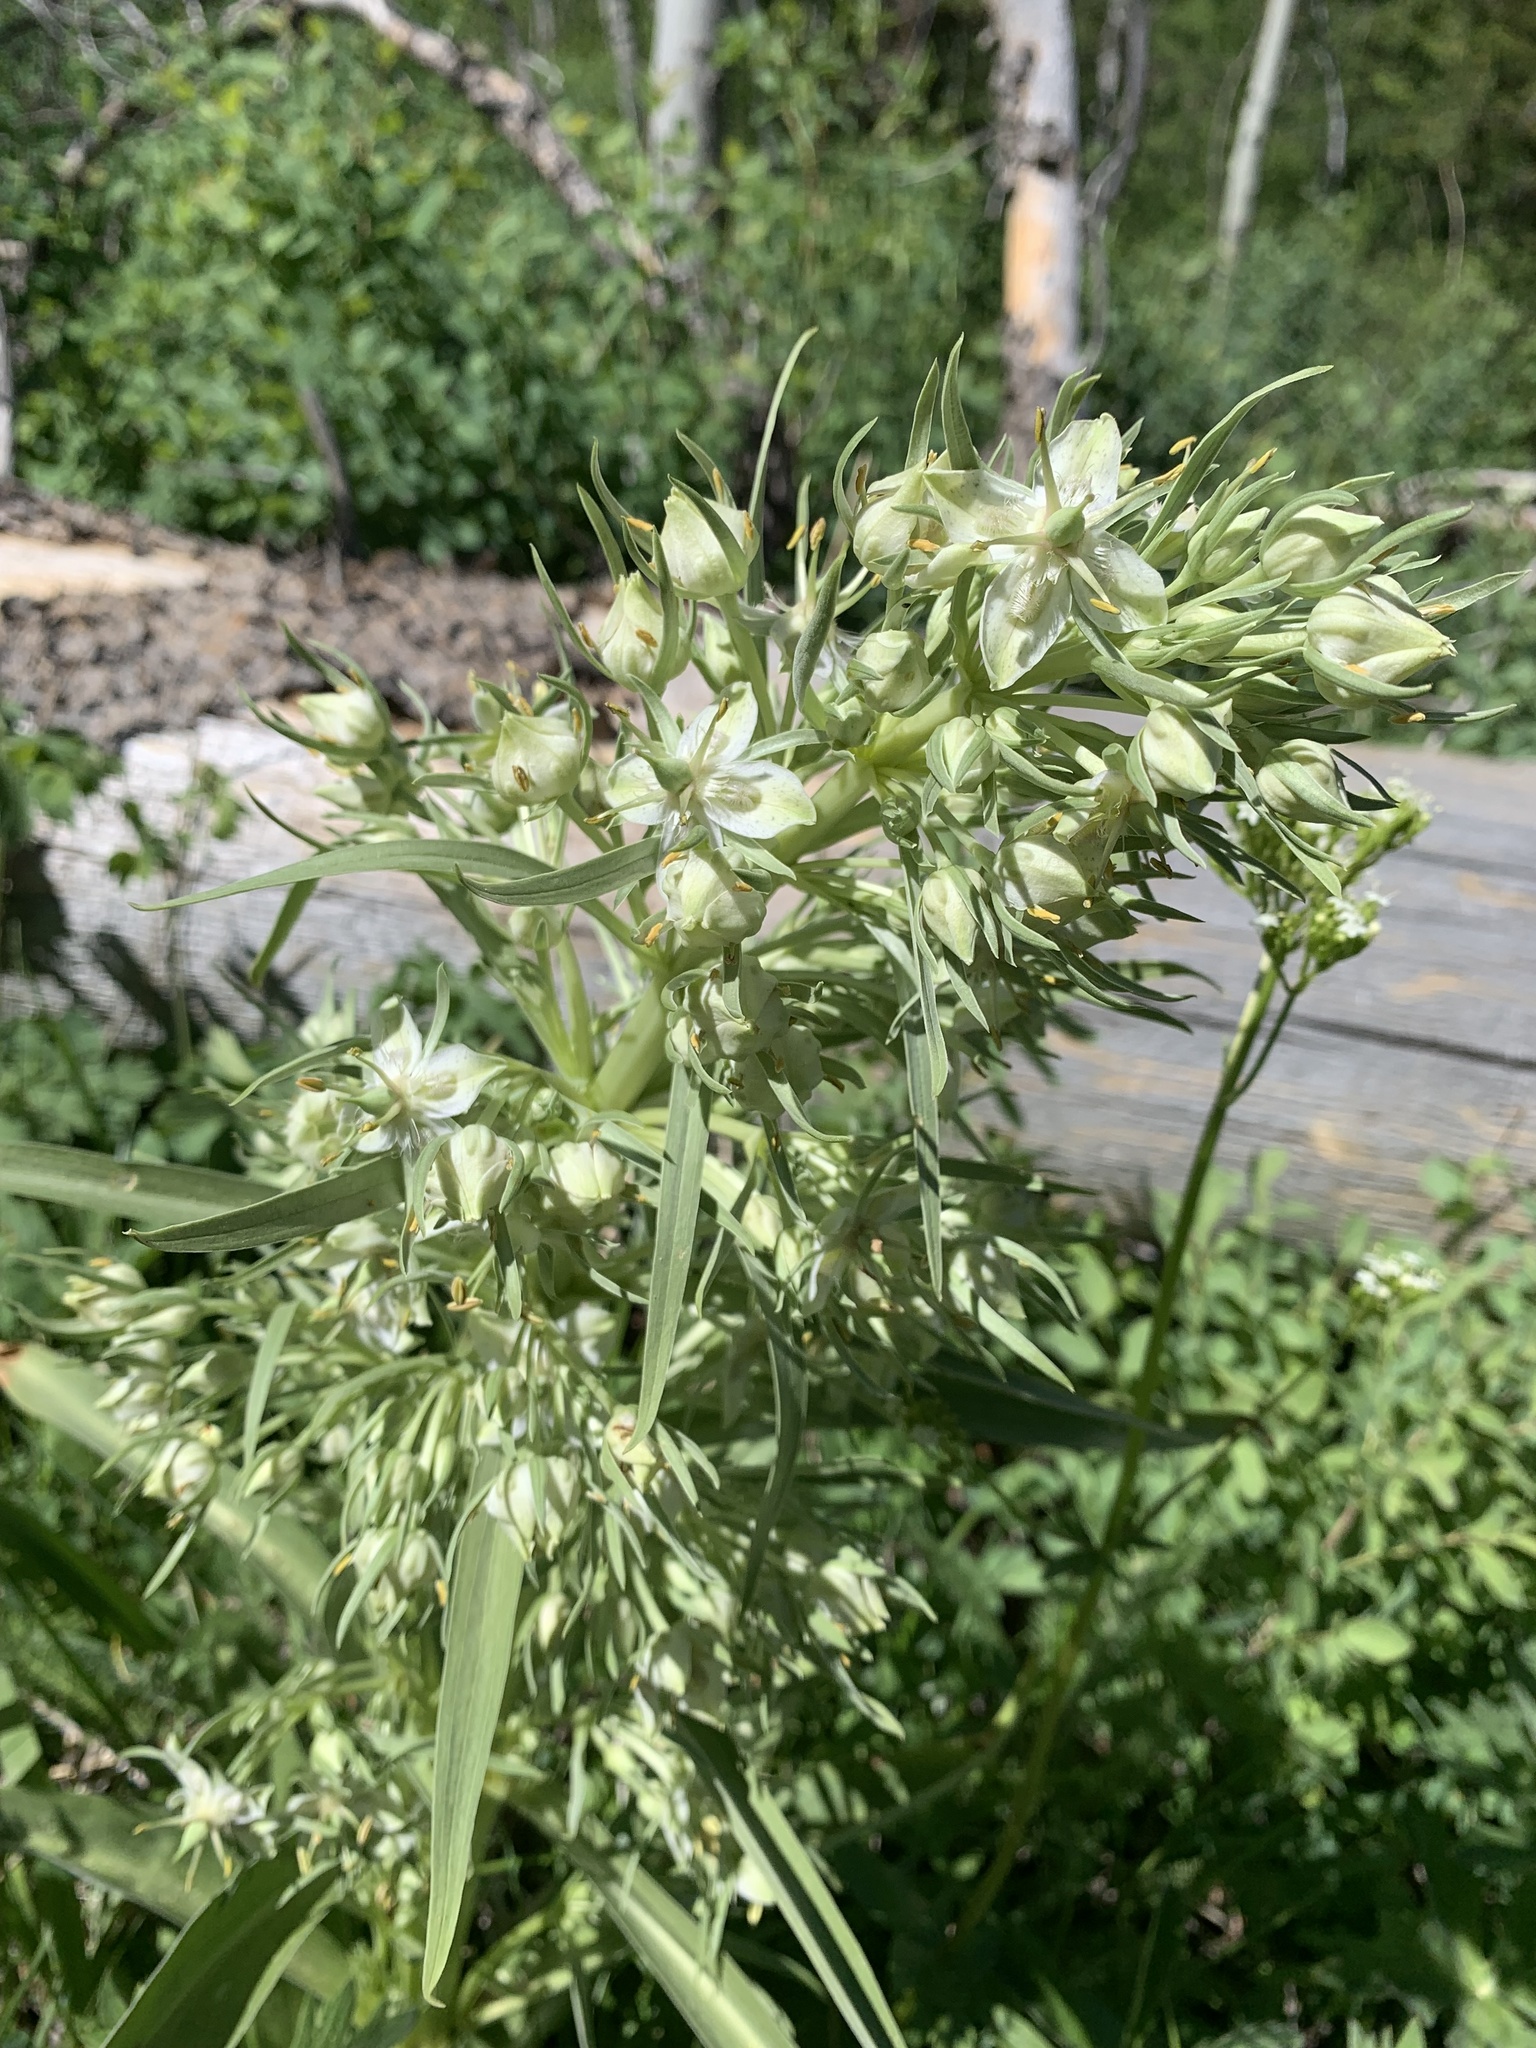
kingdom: Plantae
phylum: Tracheophyta
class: Magnoliopsida
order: Gentianales
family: Gentianaceae
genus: Frasera
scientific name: Frasera speciosa
